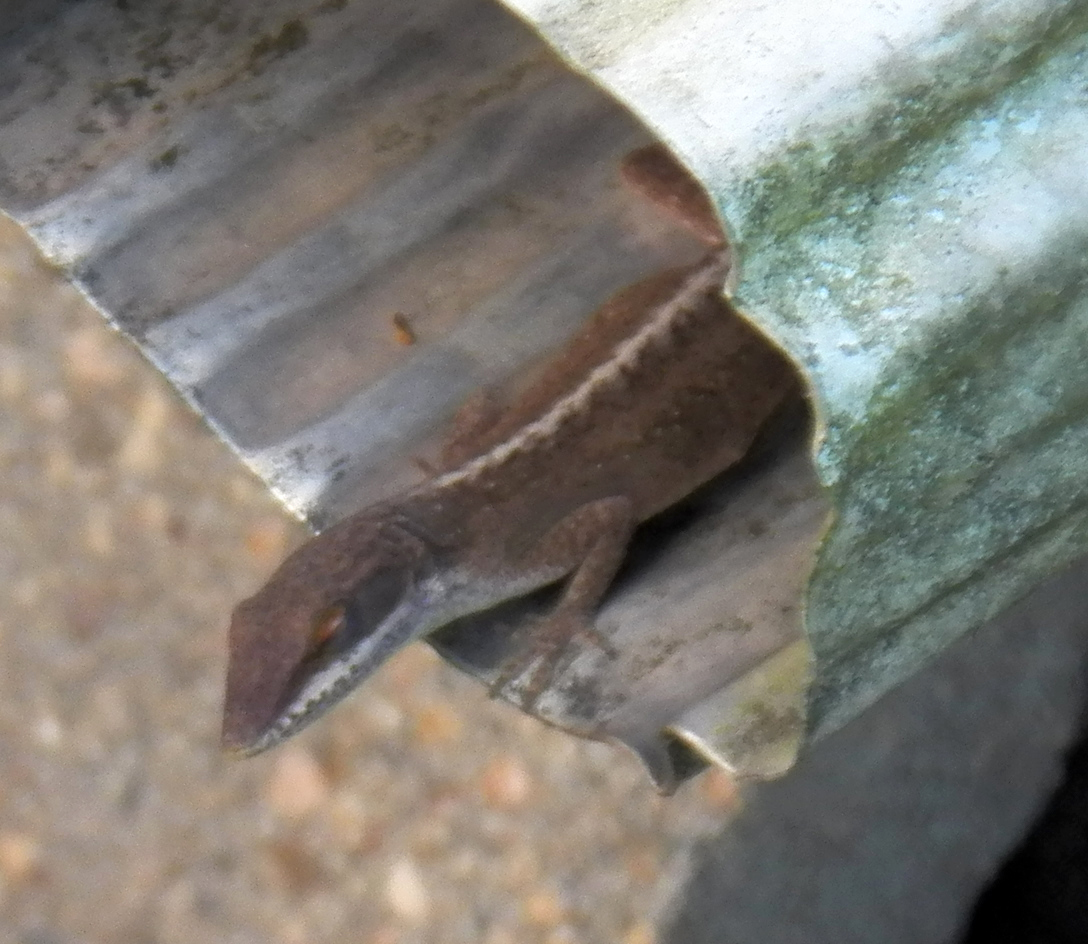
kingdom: Animalia
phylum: Chordata
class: Squamata
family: Dactyloidae
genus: Anolis
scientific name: Anolis carolinensis
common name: Green anole
